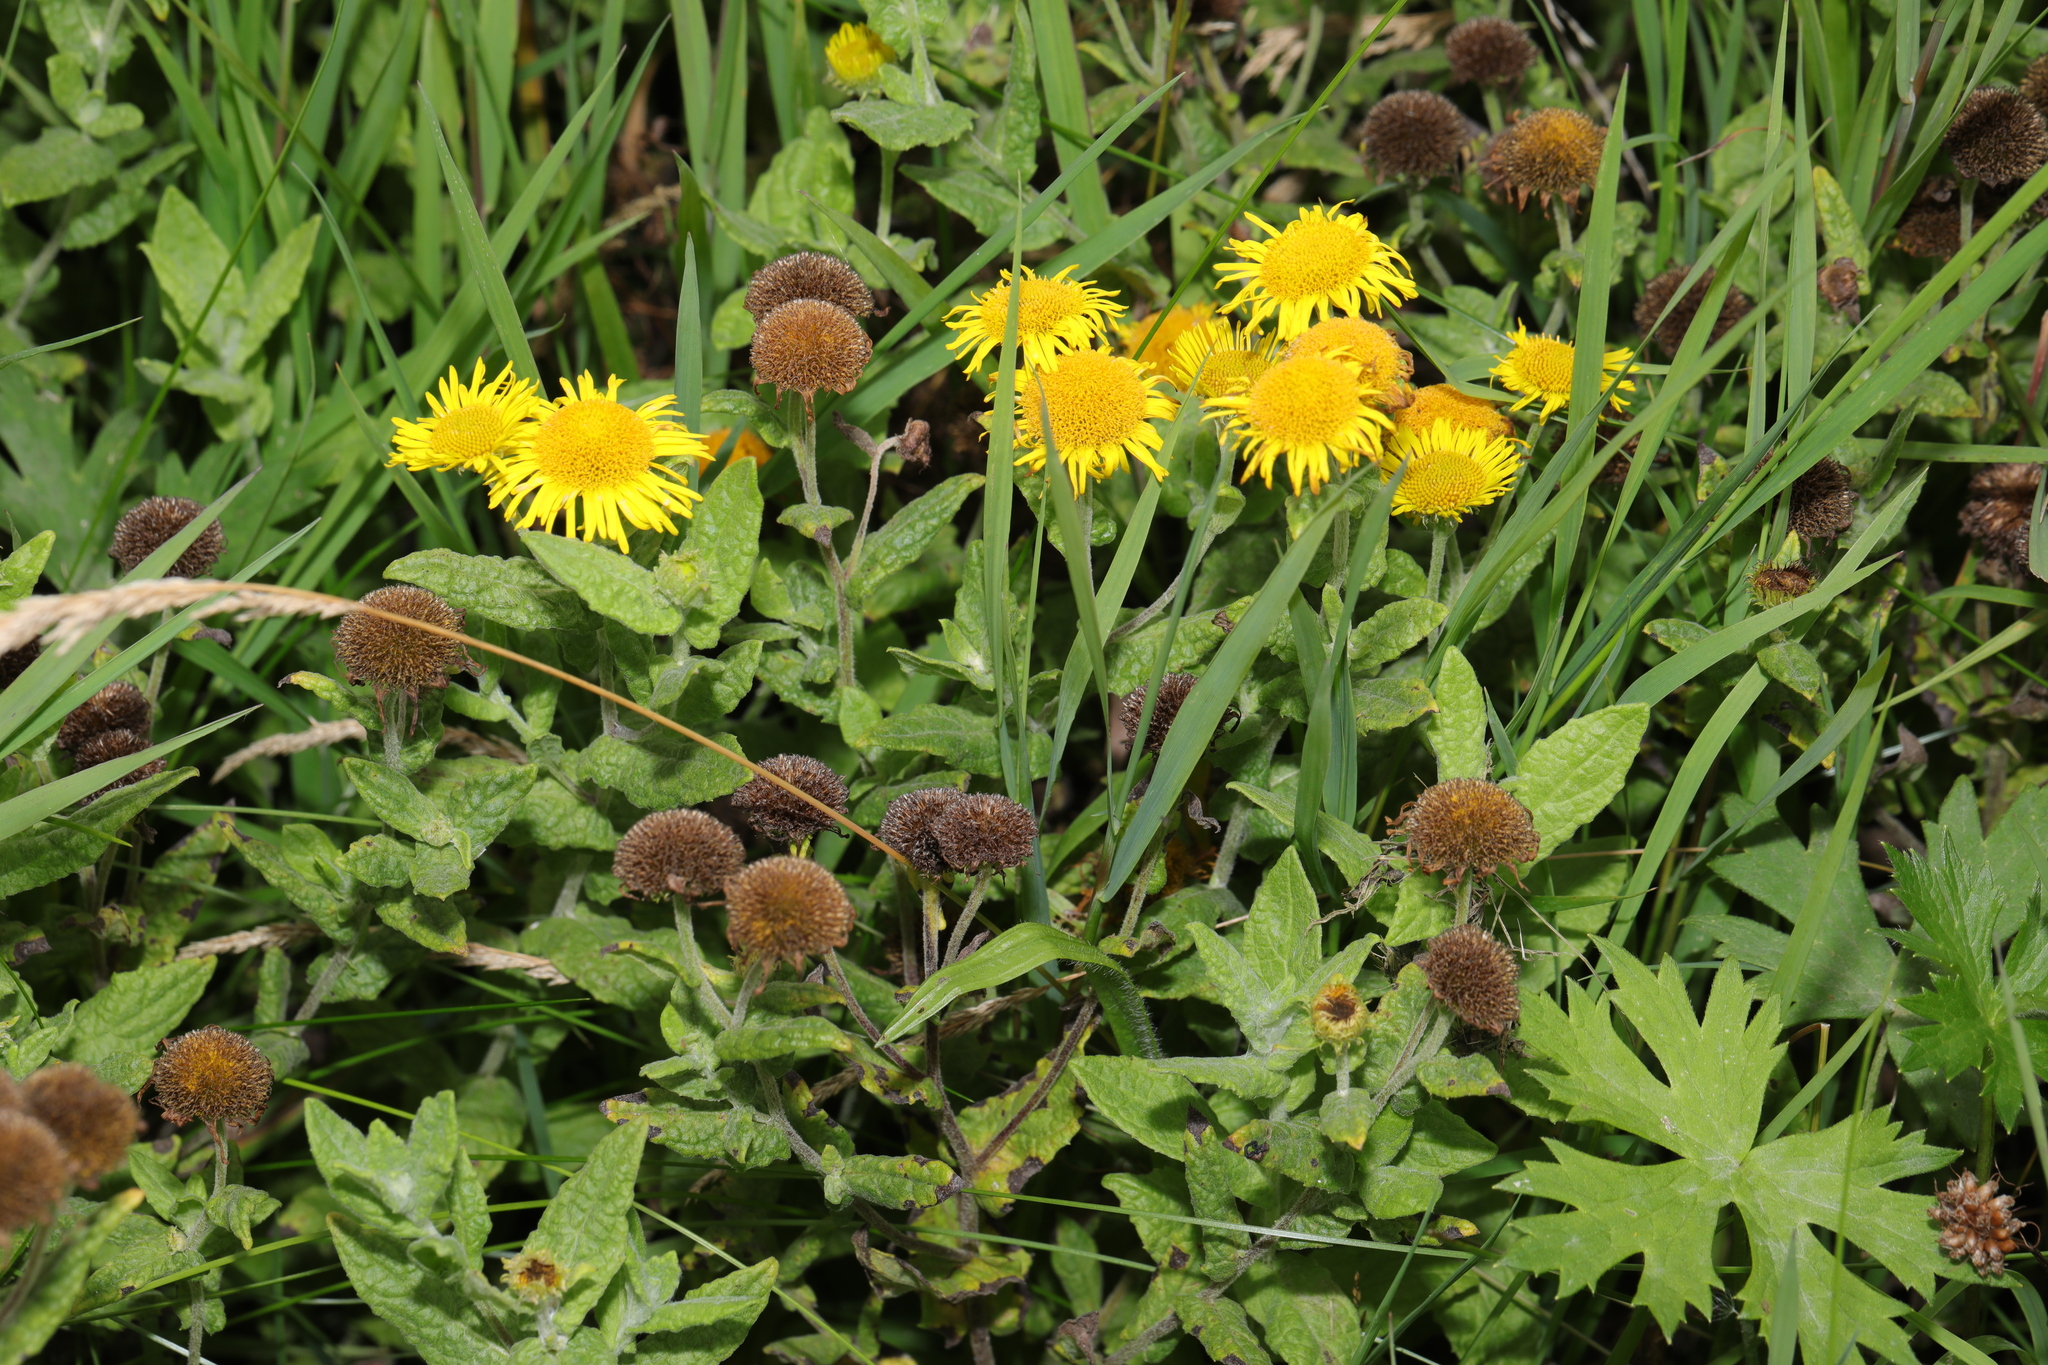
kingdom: Plantae
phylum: Tracheophyta
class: Magnoliopsida
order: Asterales
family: Asteraceae
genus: Pulicaria
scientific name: Pulicaria dysenterica
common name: Common fleabane
